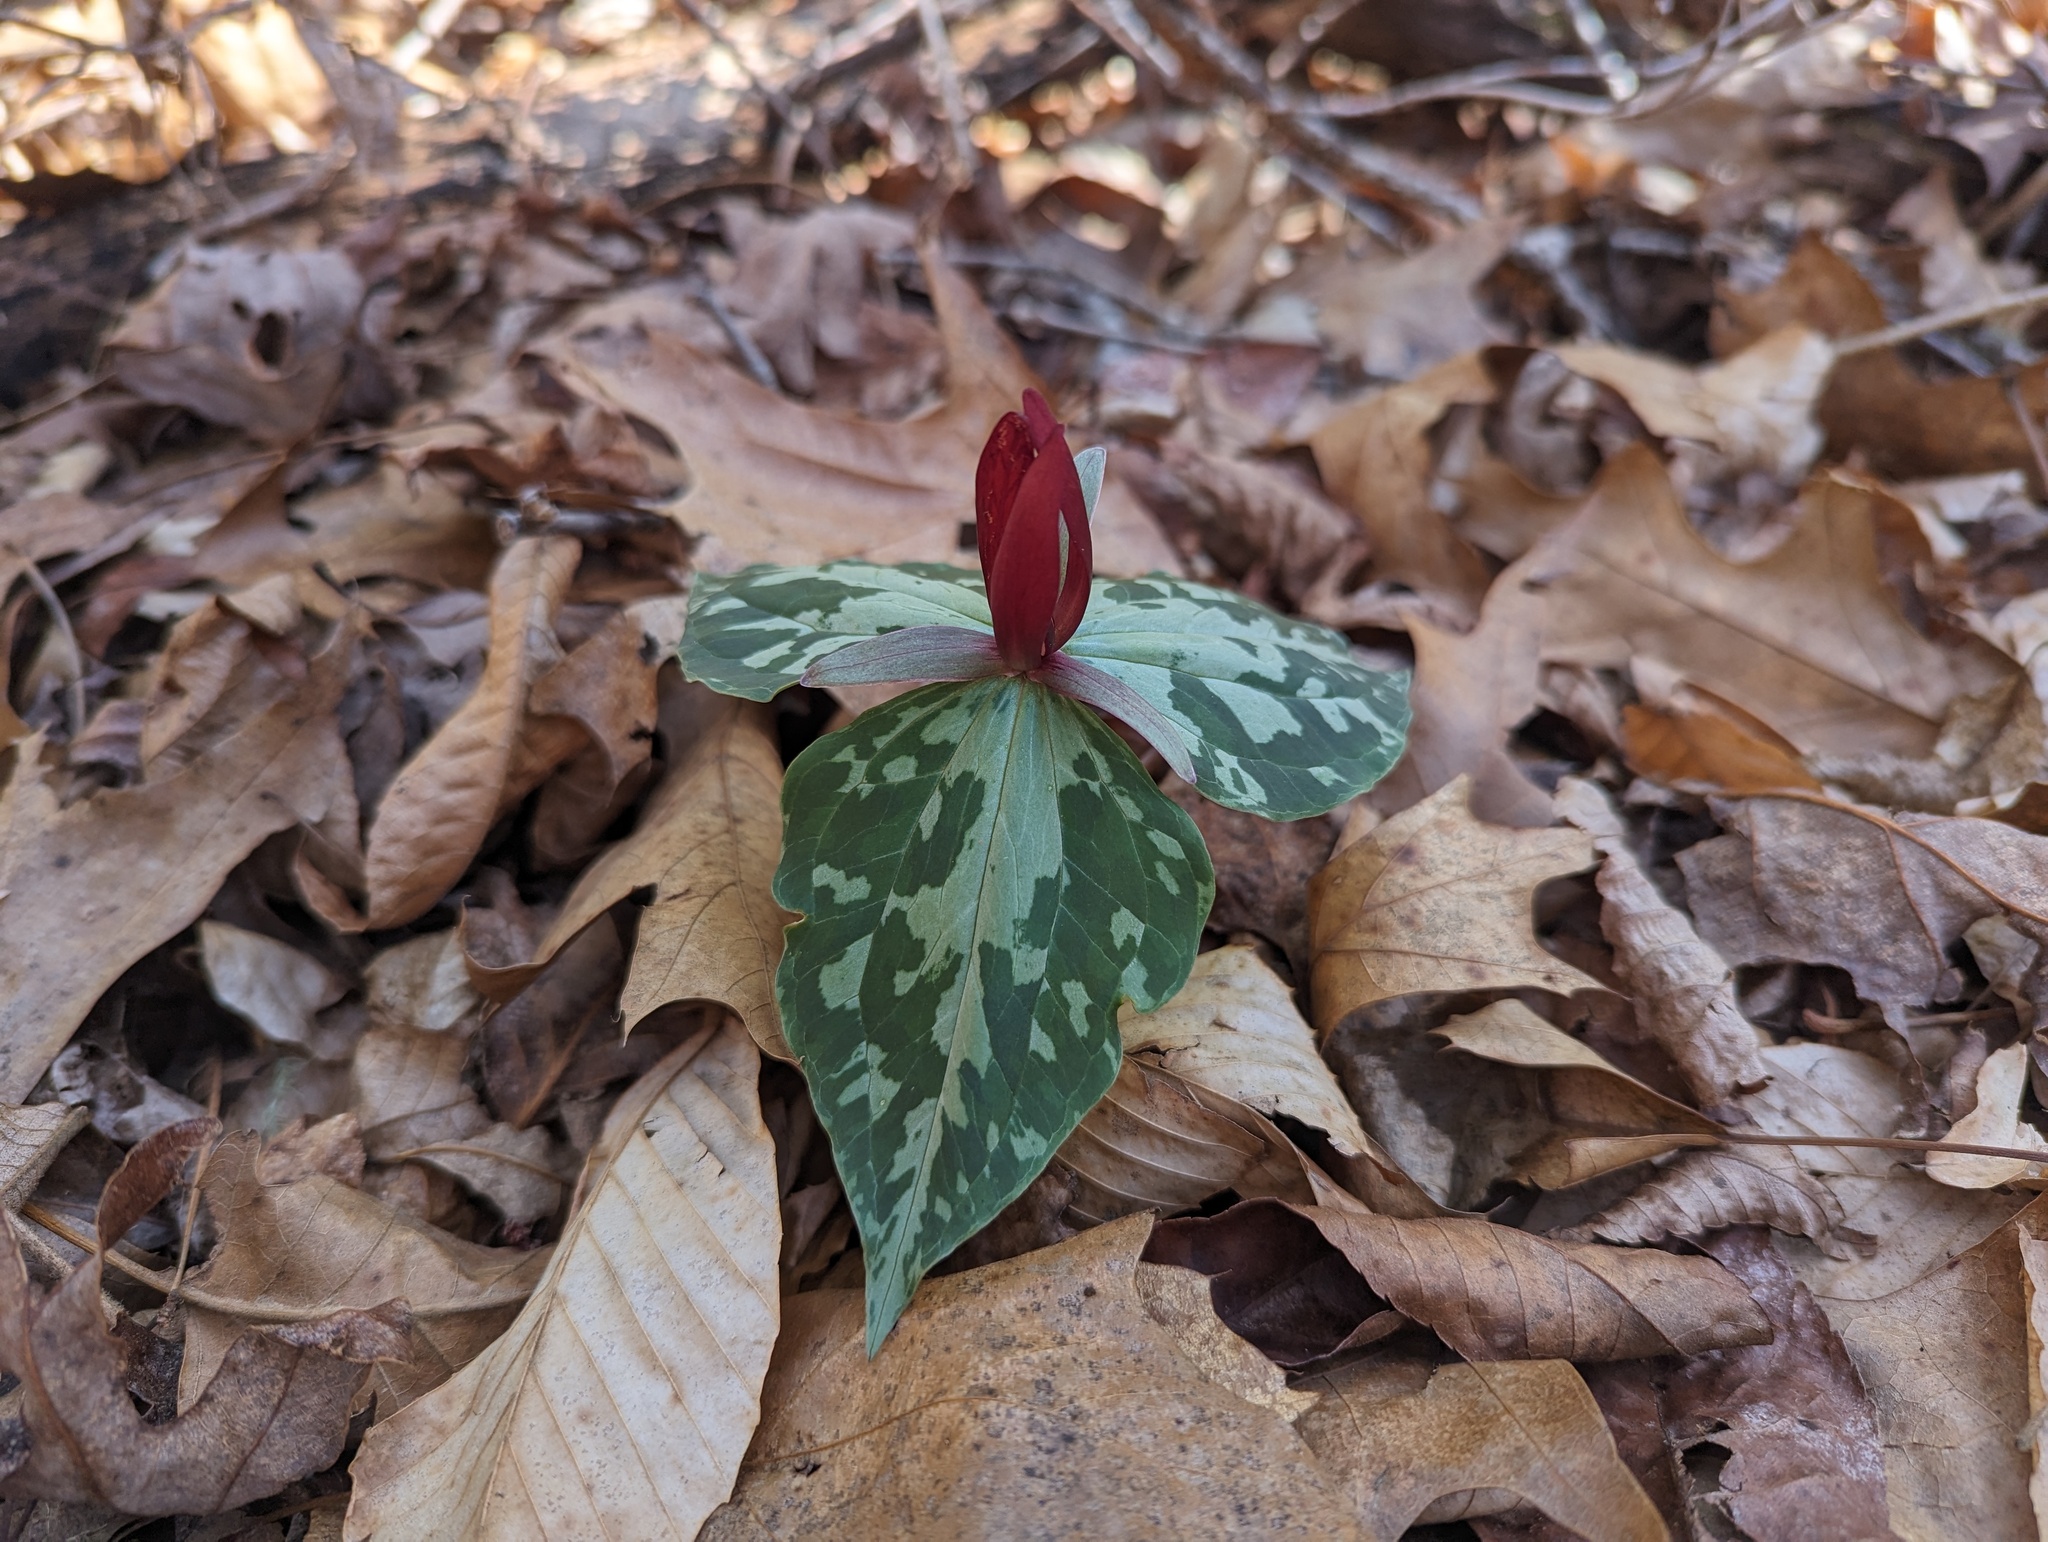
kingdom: Plantae
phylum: Tracheophyta
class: Liliopsida
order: Liliales
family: Melanthiaceae
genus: Trillium
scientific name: Trillium cuneatum
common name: Cuneate trillium
